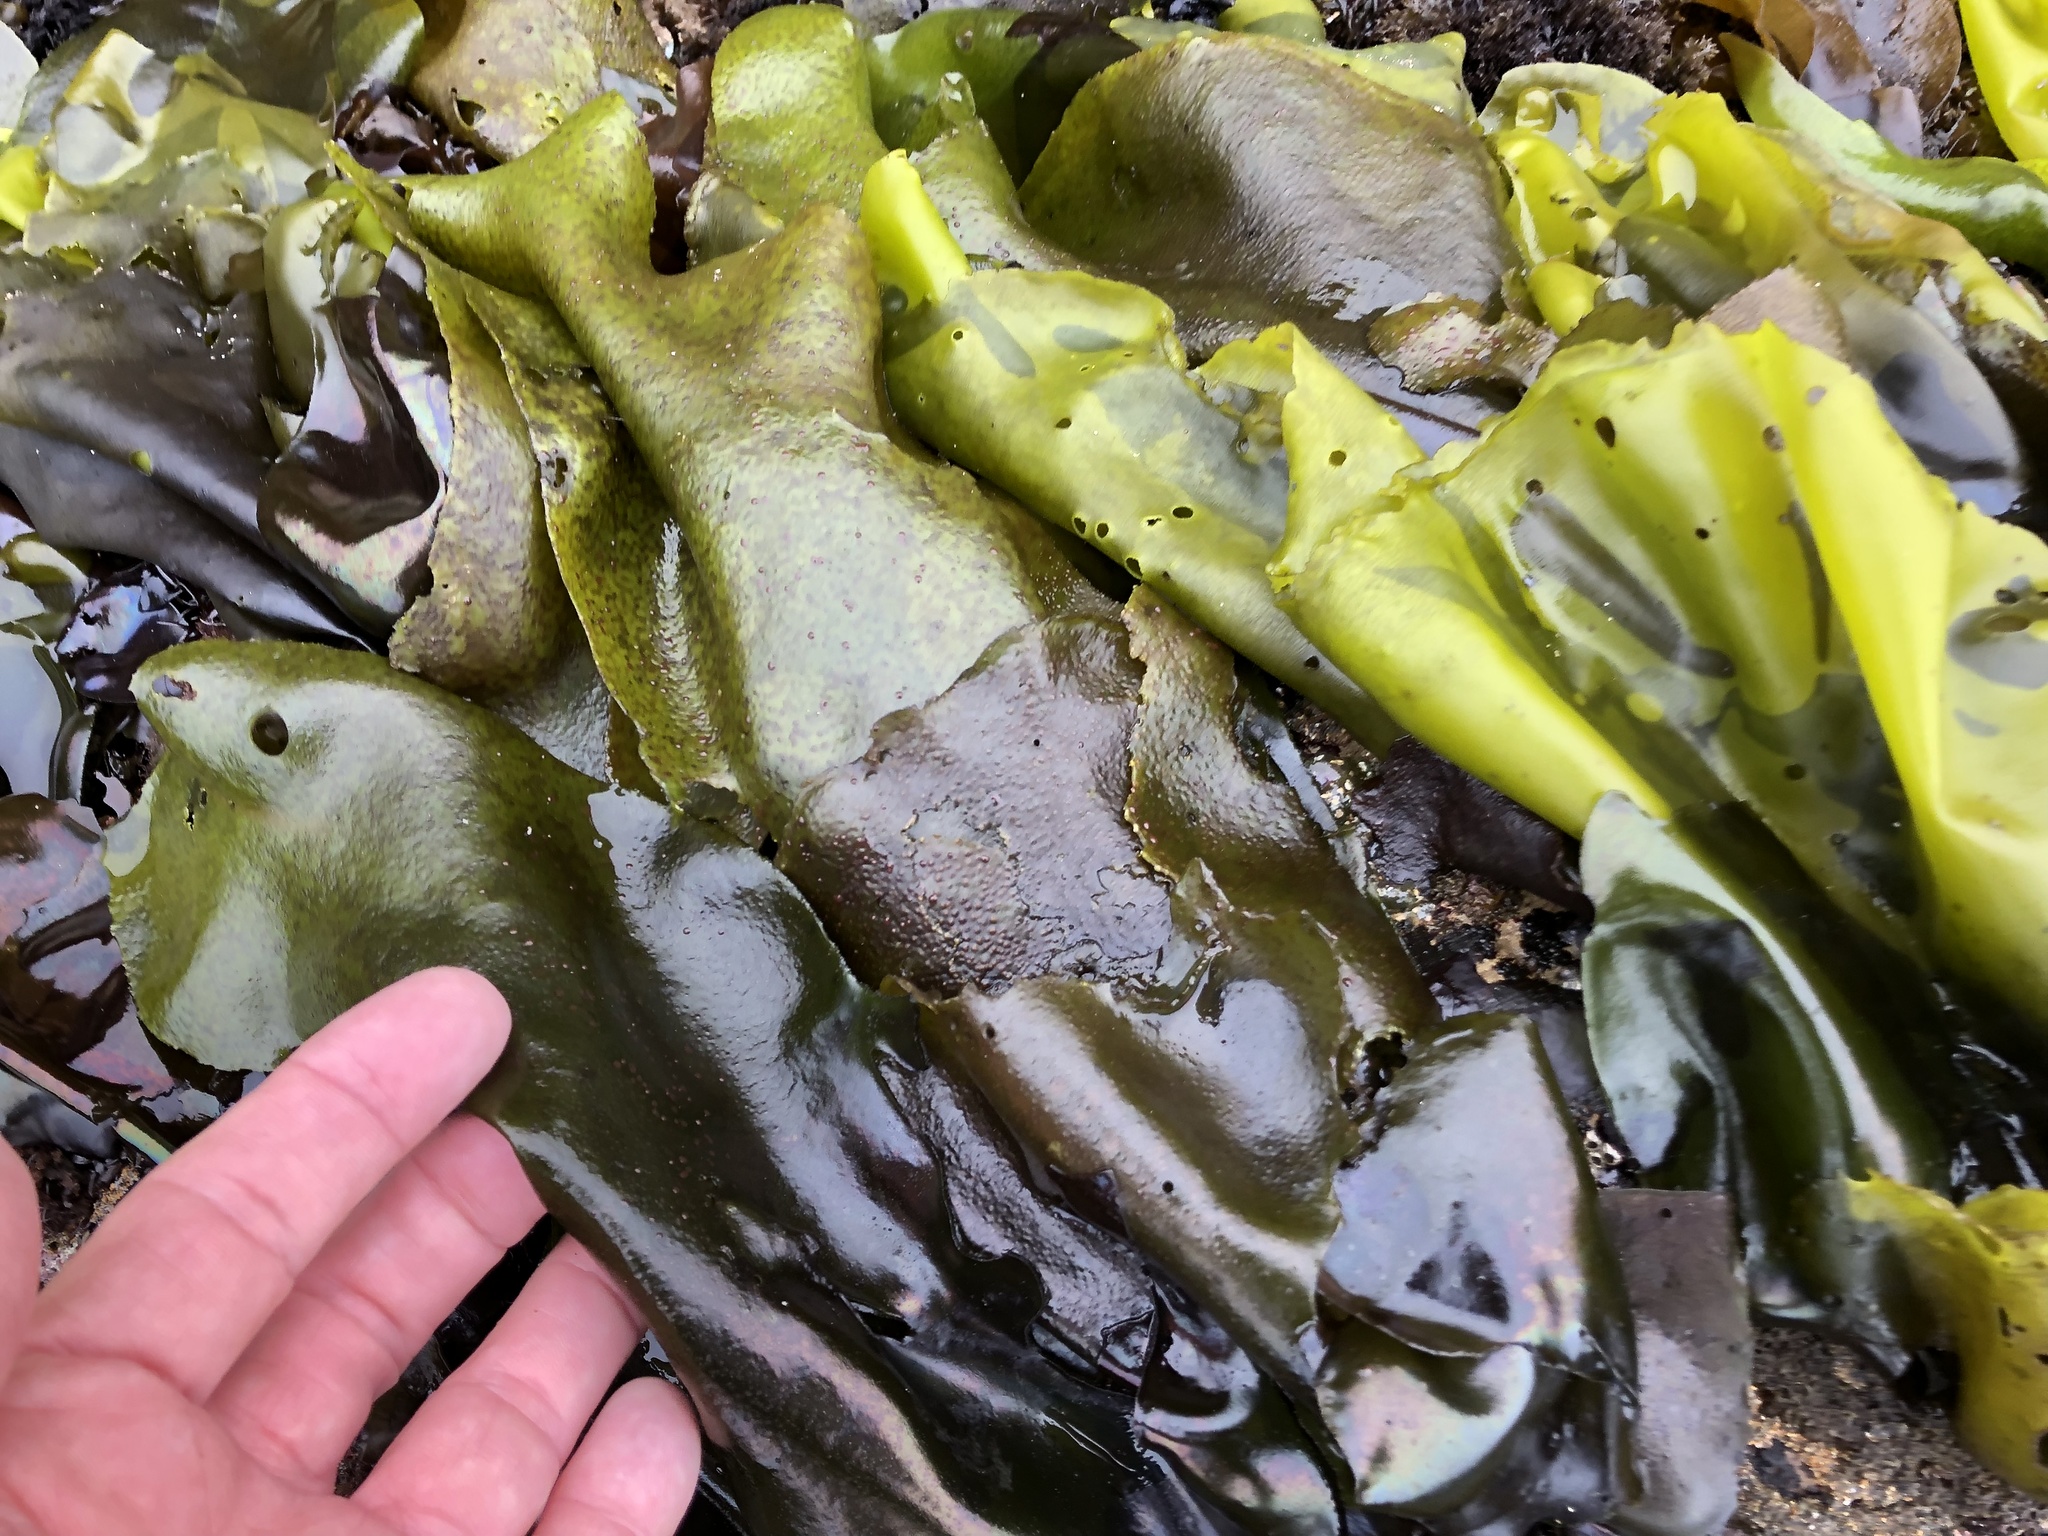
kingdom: Plantae
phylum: Rhodophyta
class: Florideophyceae
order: Gigartinales
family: Gigartinaceae
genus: Mazzaella
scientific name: Mazzaella flaccida
